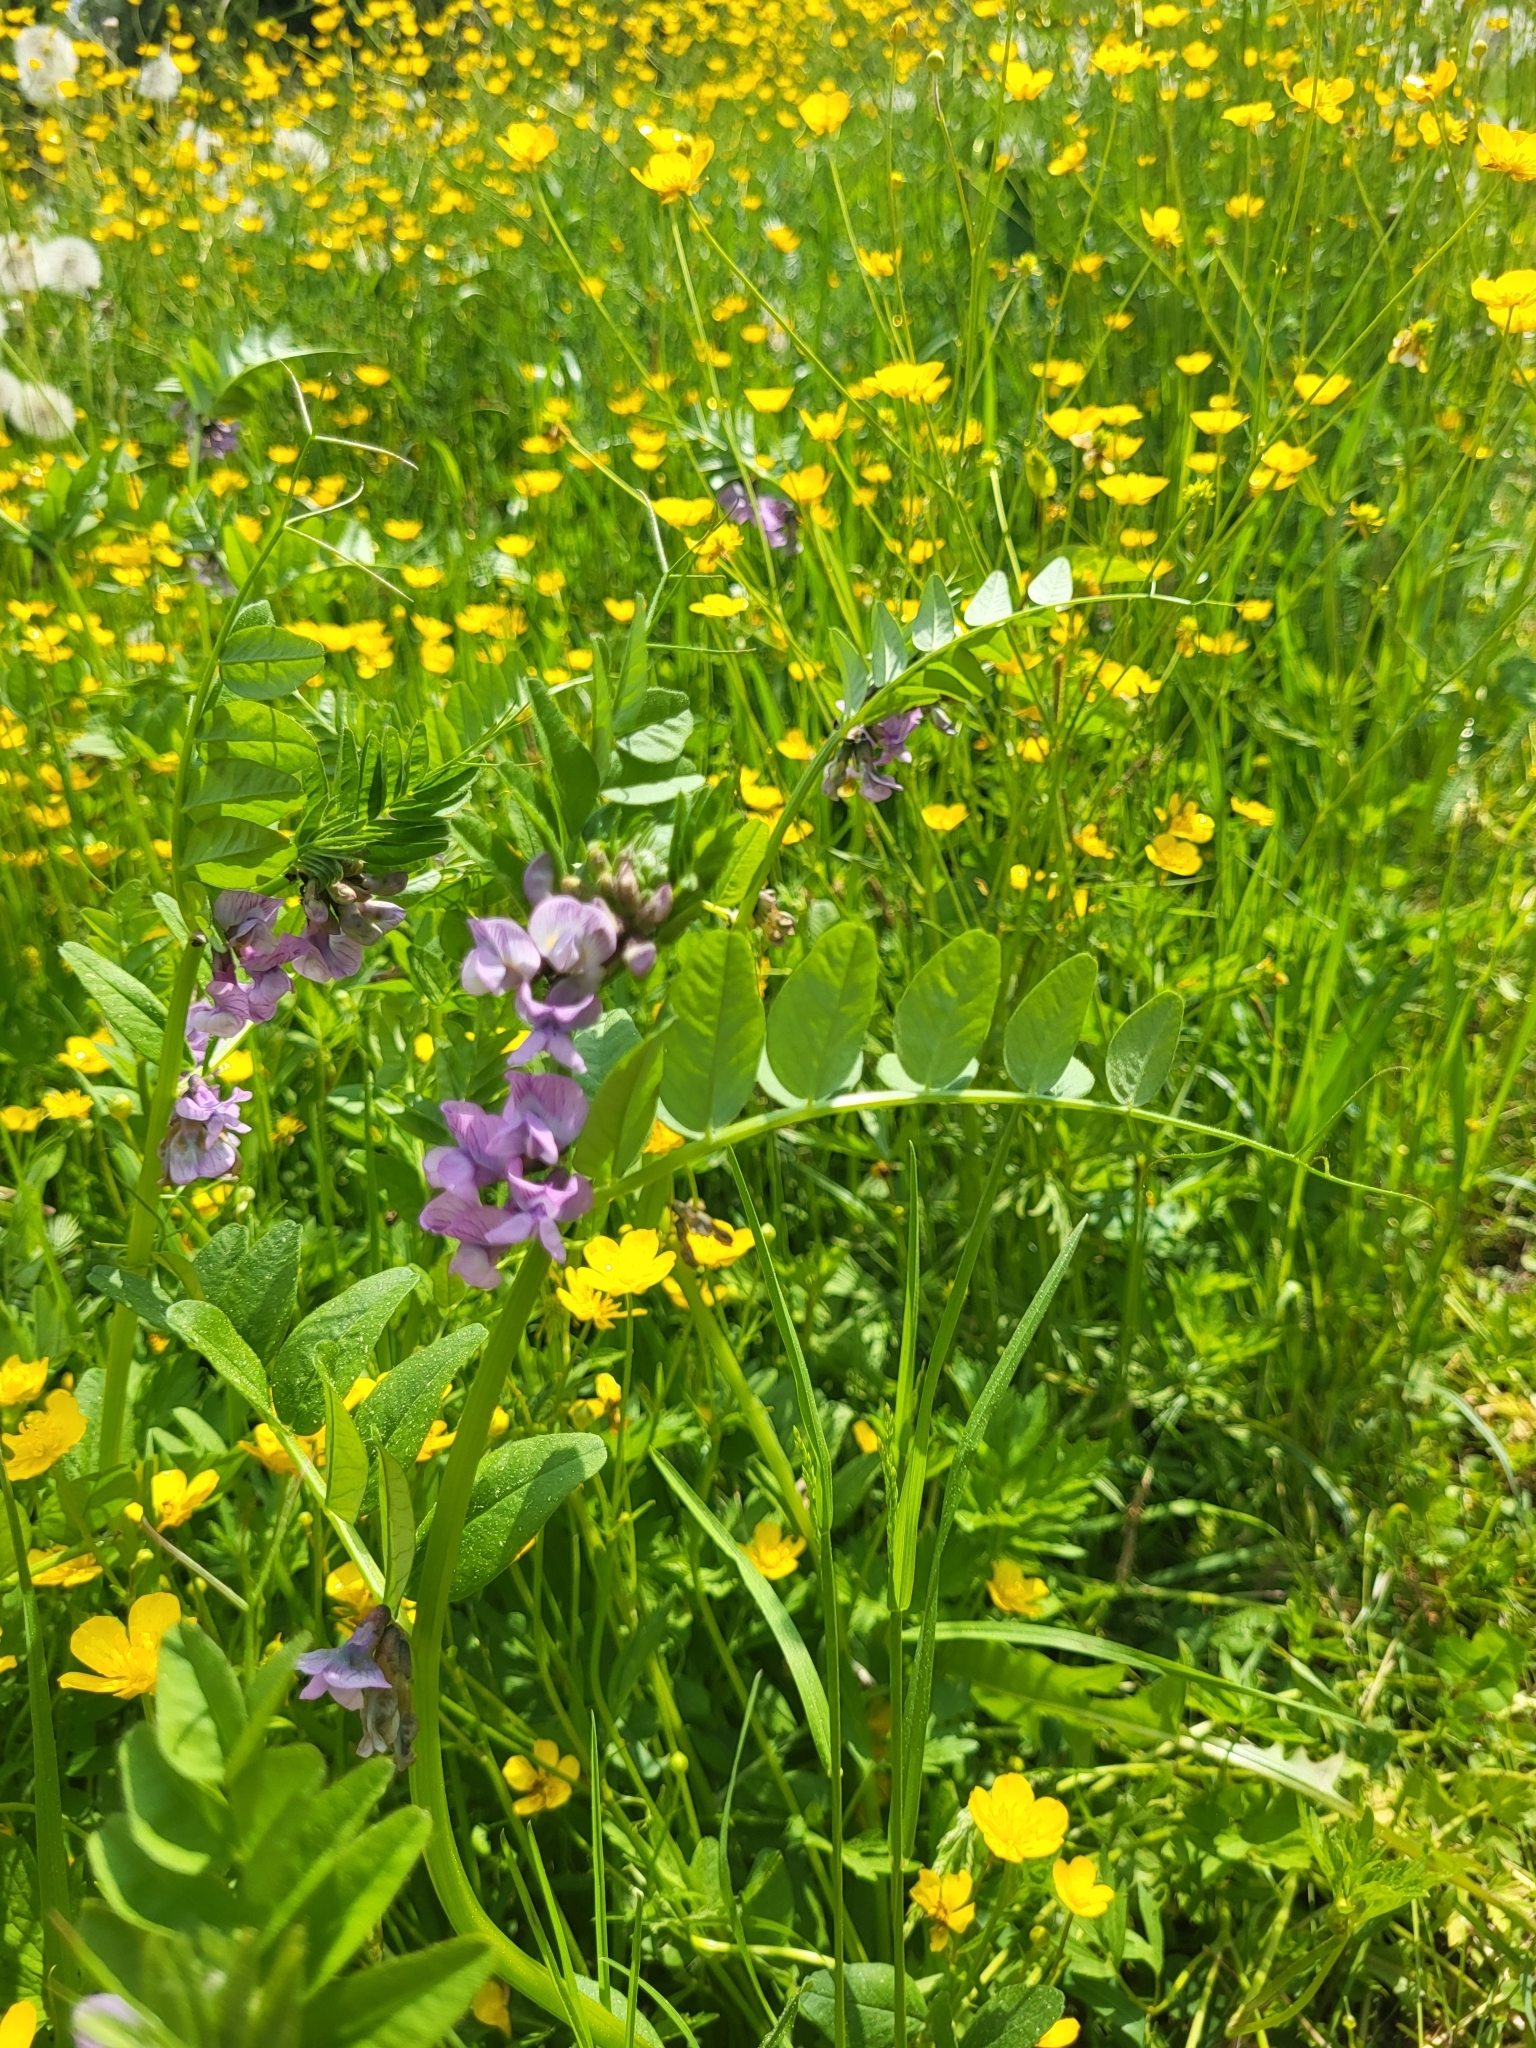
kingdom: Plantae
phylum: Tracheophyta
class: Magnoliopsida
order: Fabales
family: Fabaceae
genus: Vicia
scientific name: Vicia sepium
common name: Bush vetch
